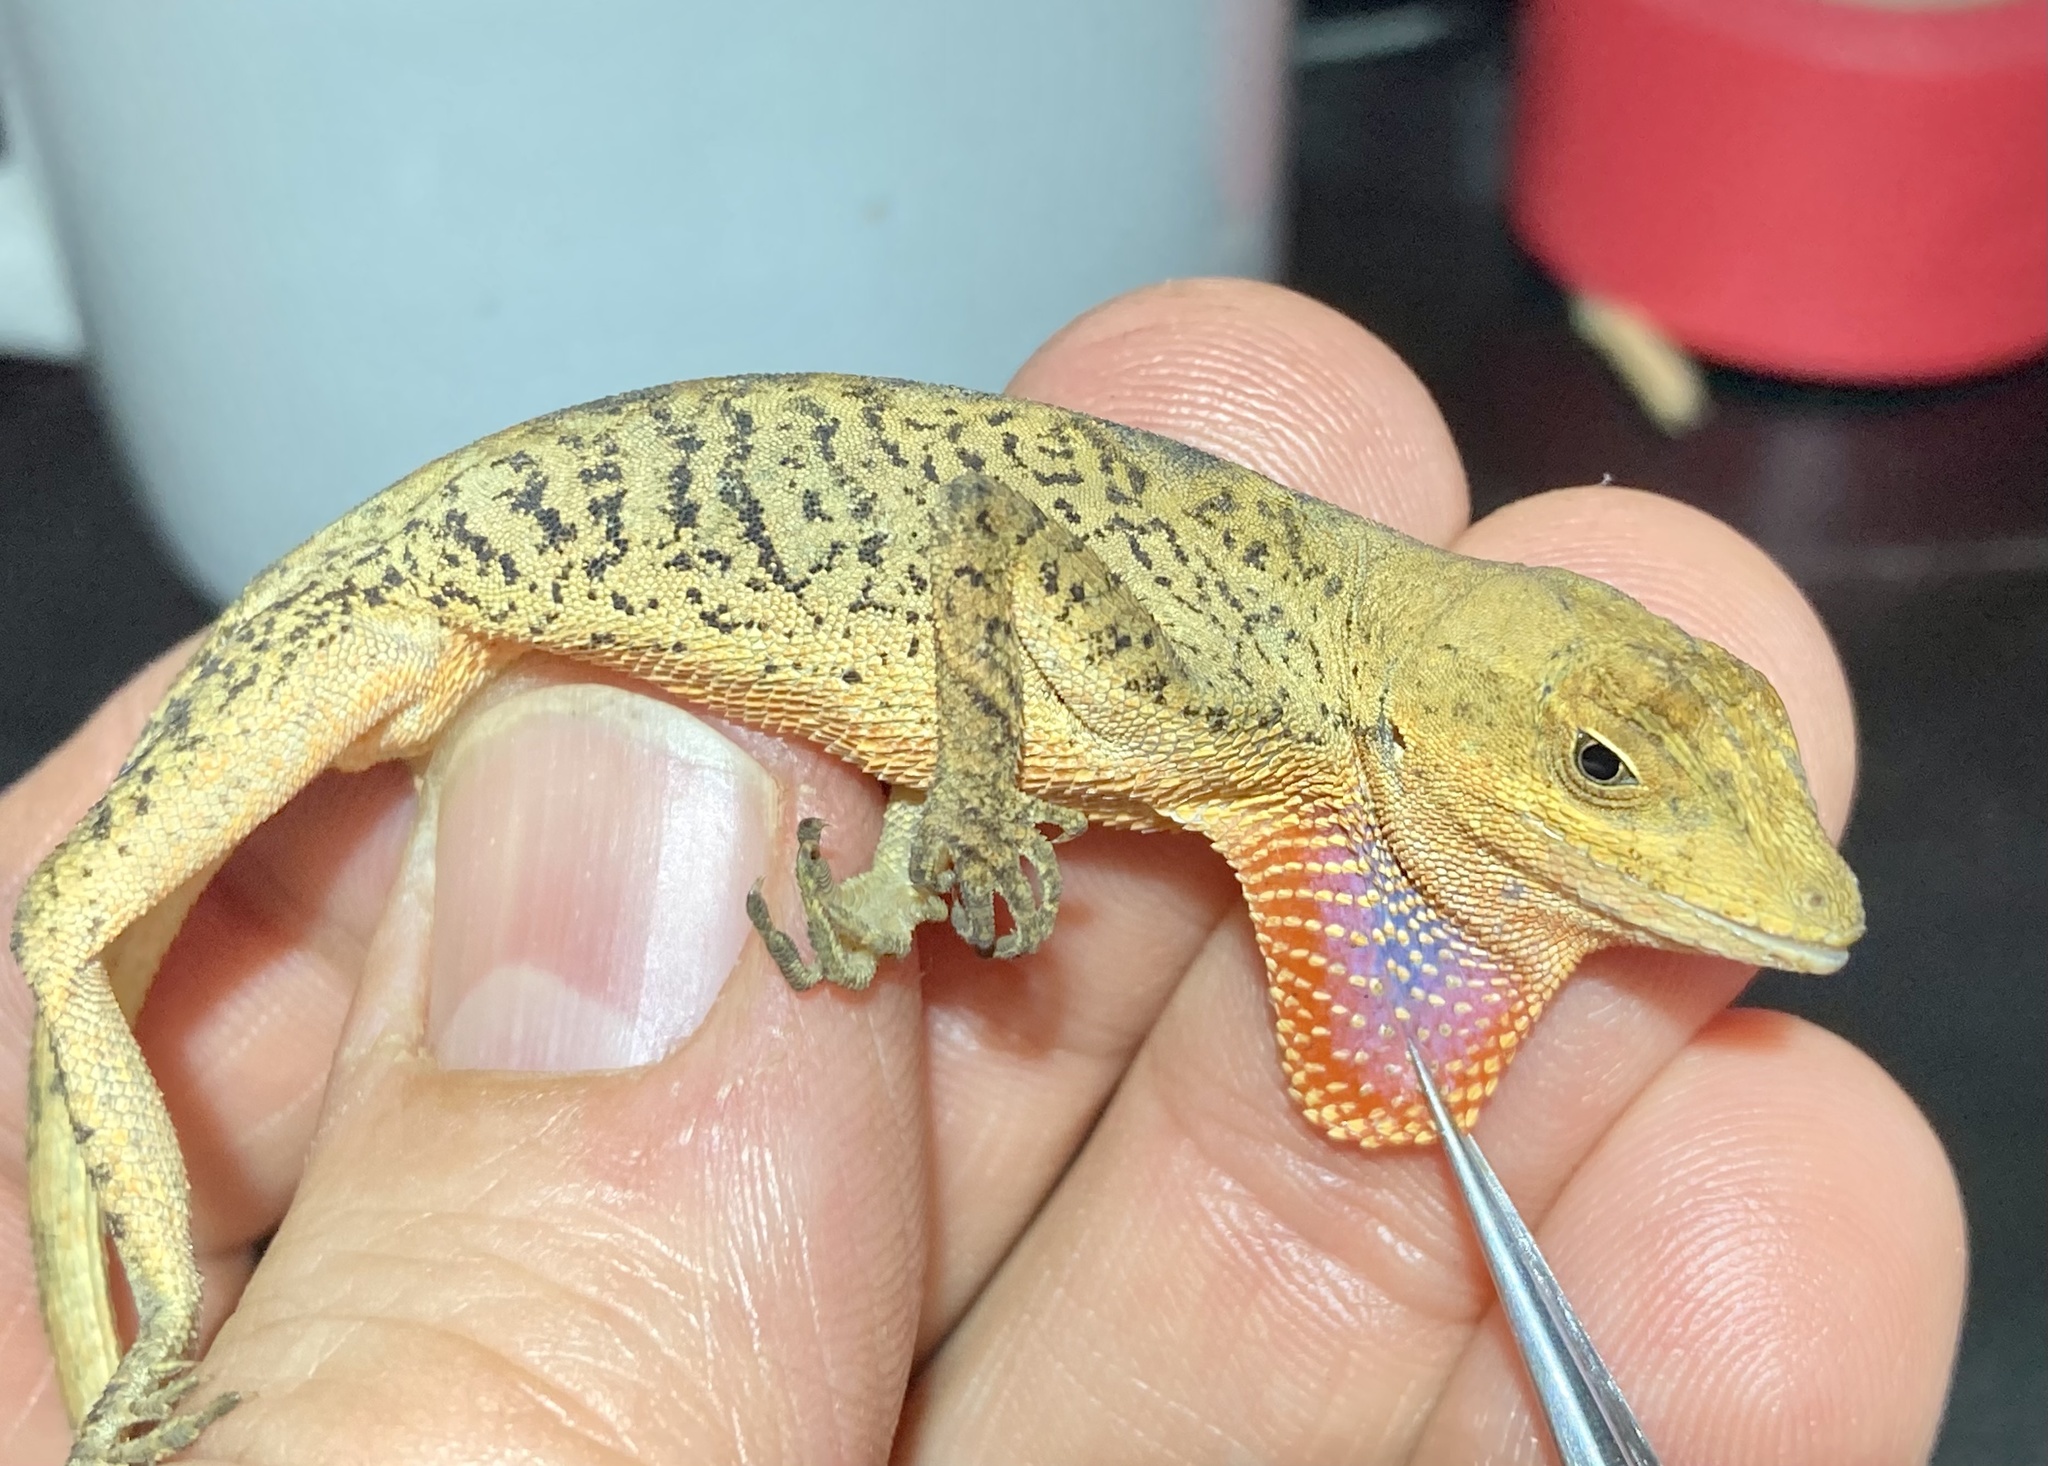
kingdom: Animalia
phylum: Chordata
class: Squamata
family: Dactyloidae
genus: Anolis
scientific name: Anolis scypheus
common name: Yellow-tongued anole
